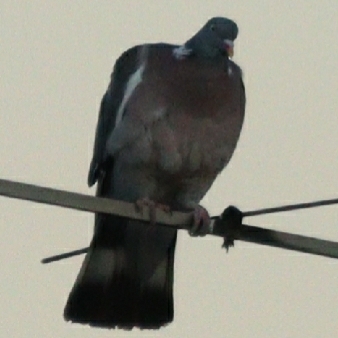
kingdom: Animalia
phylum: Chordata
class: Aves
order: Columbiformes
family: Columbidae
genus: Columba
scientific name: Columba palumbus
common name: Common wood pigeon
